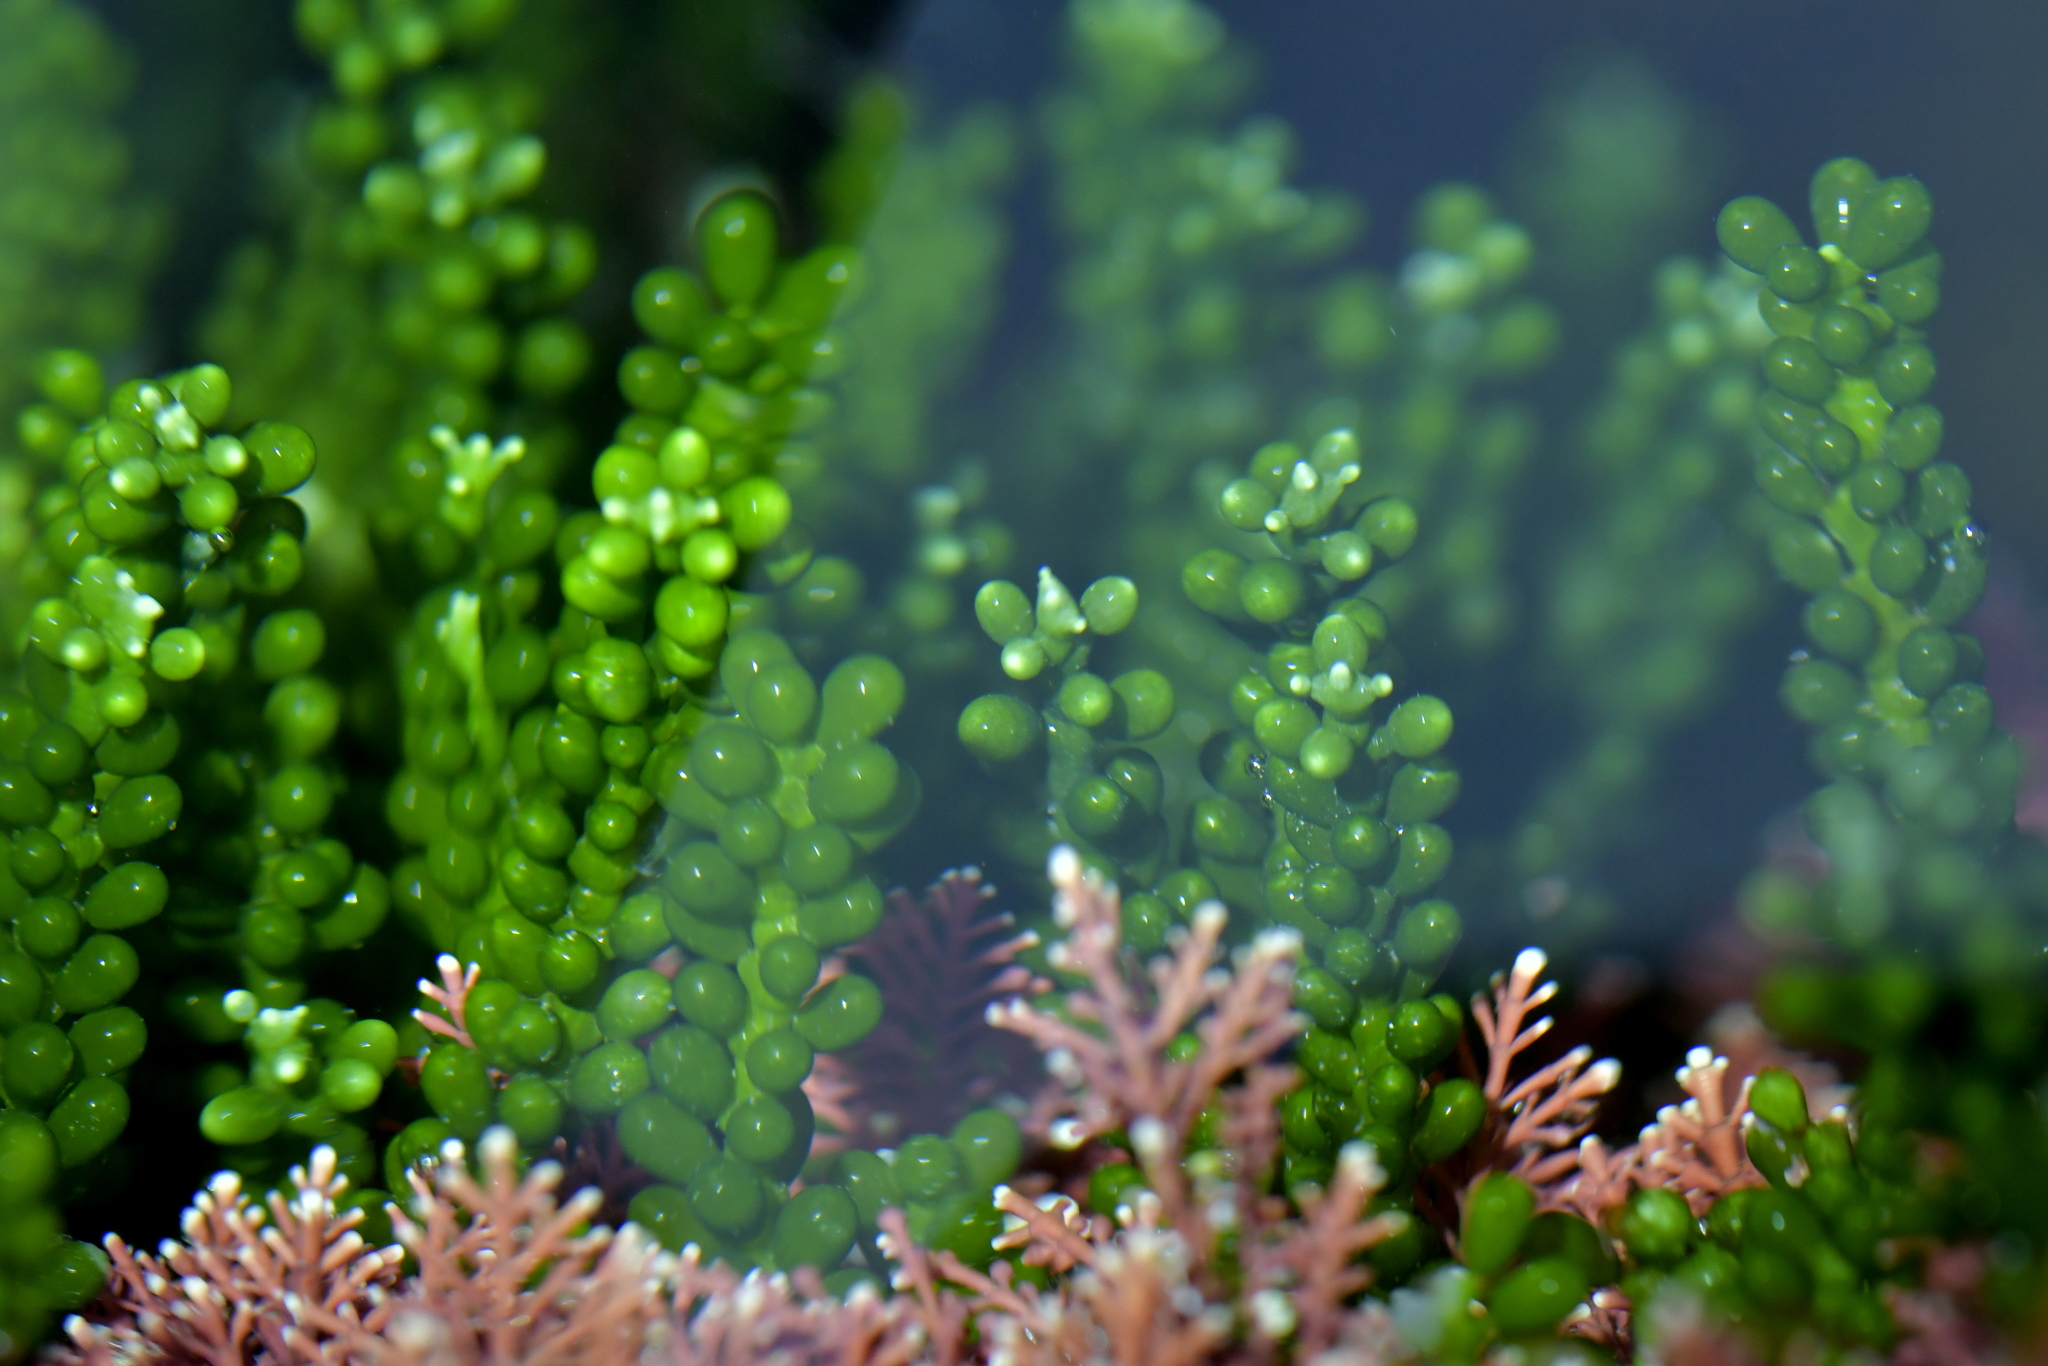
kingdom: Plantae
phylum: Chlorophyta
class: Ulvophyceae
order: Bryopsidales
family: Caulerpaceae
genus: Caulerpa
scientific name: Caulerpa geminata
